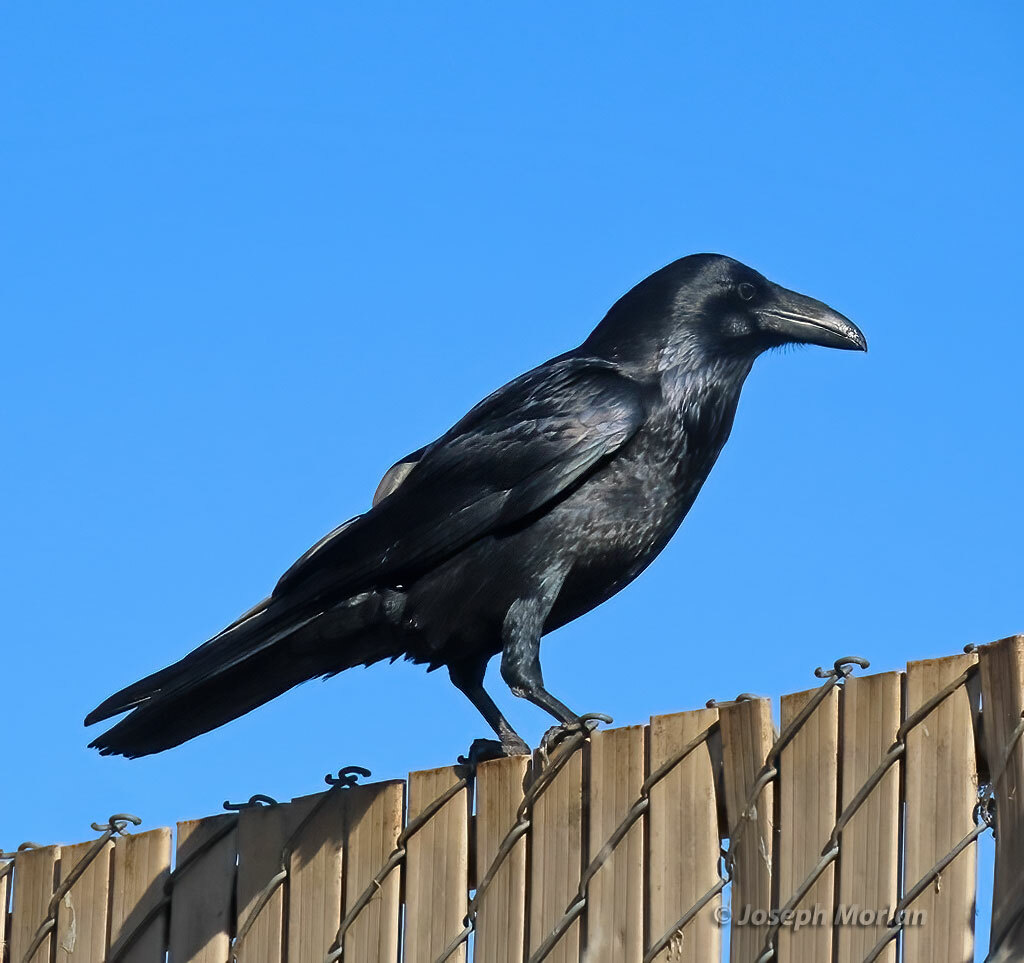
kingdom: Animalia
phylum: Chordata
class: Aves
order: Passeriformes
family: Corvidae
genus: Corvus
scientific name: Corvus corax
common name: Common raven
